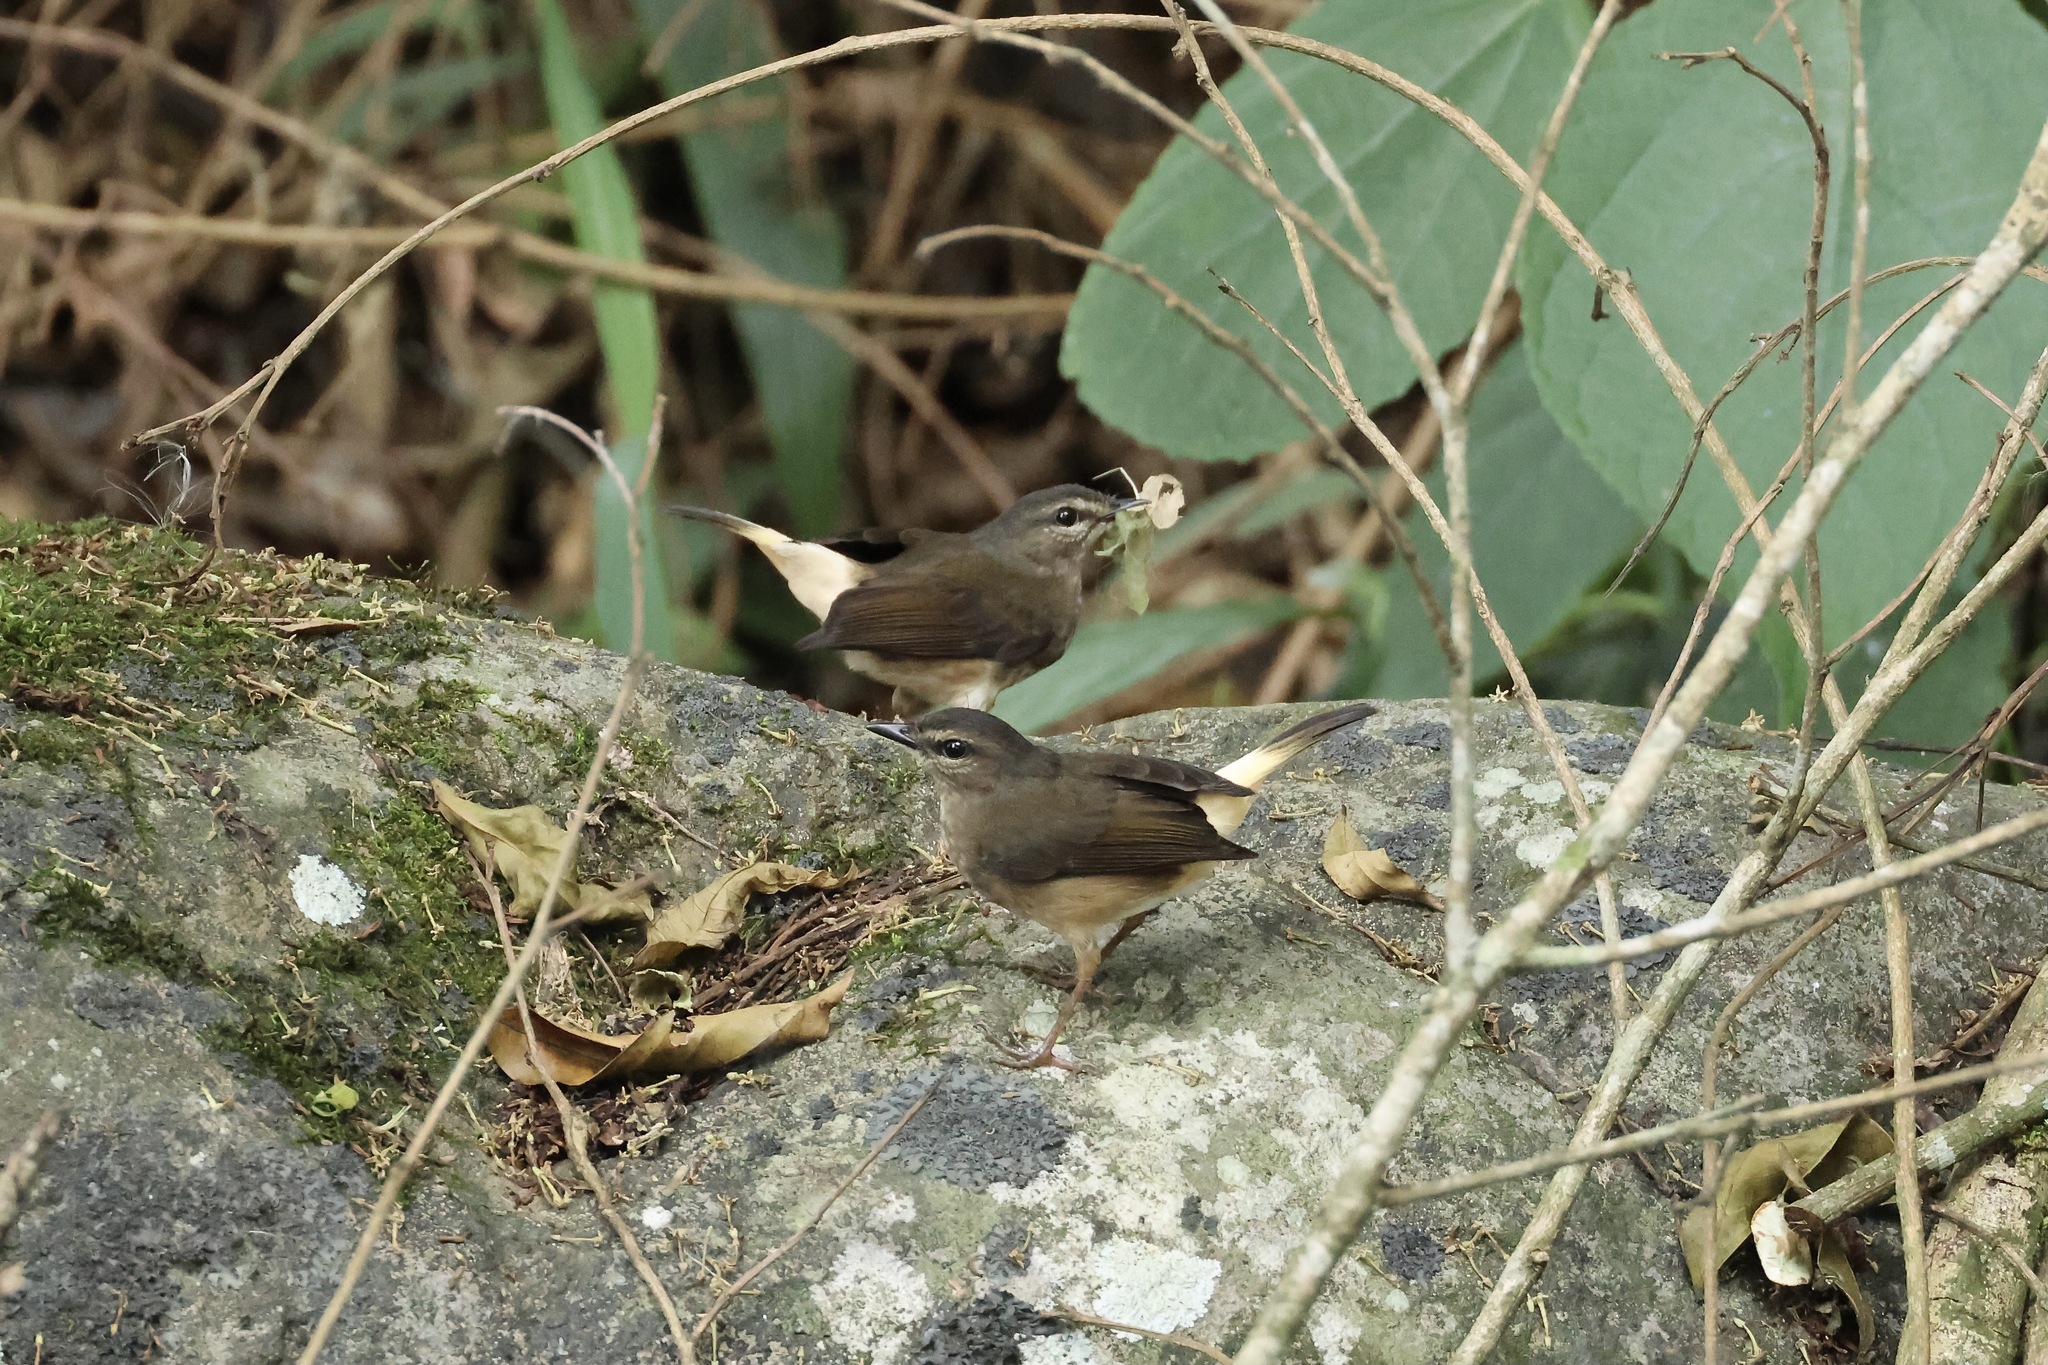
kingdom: Animalia
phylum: Chordata
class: Aves
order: Passeriformes
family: Parulidae
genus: Myiothlypis
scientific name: Myiothlypis fulvicauda
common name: Buff-rumped warbler
